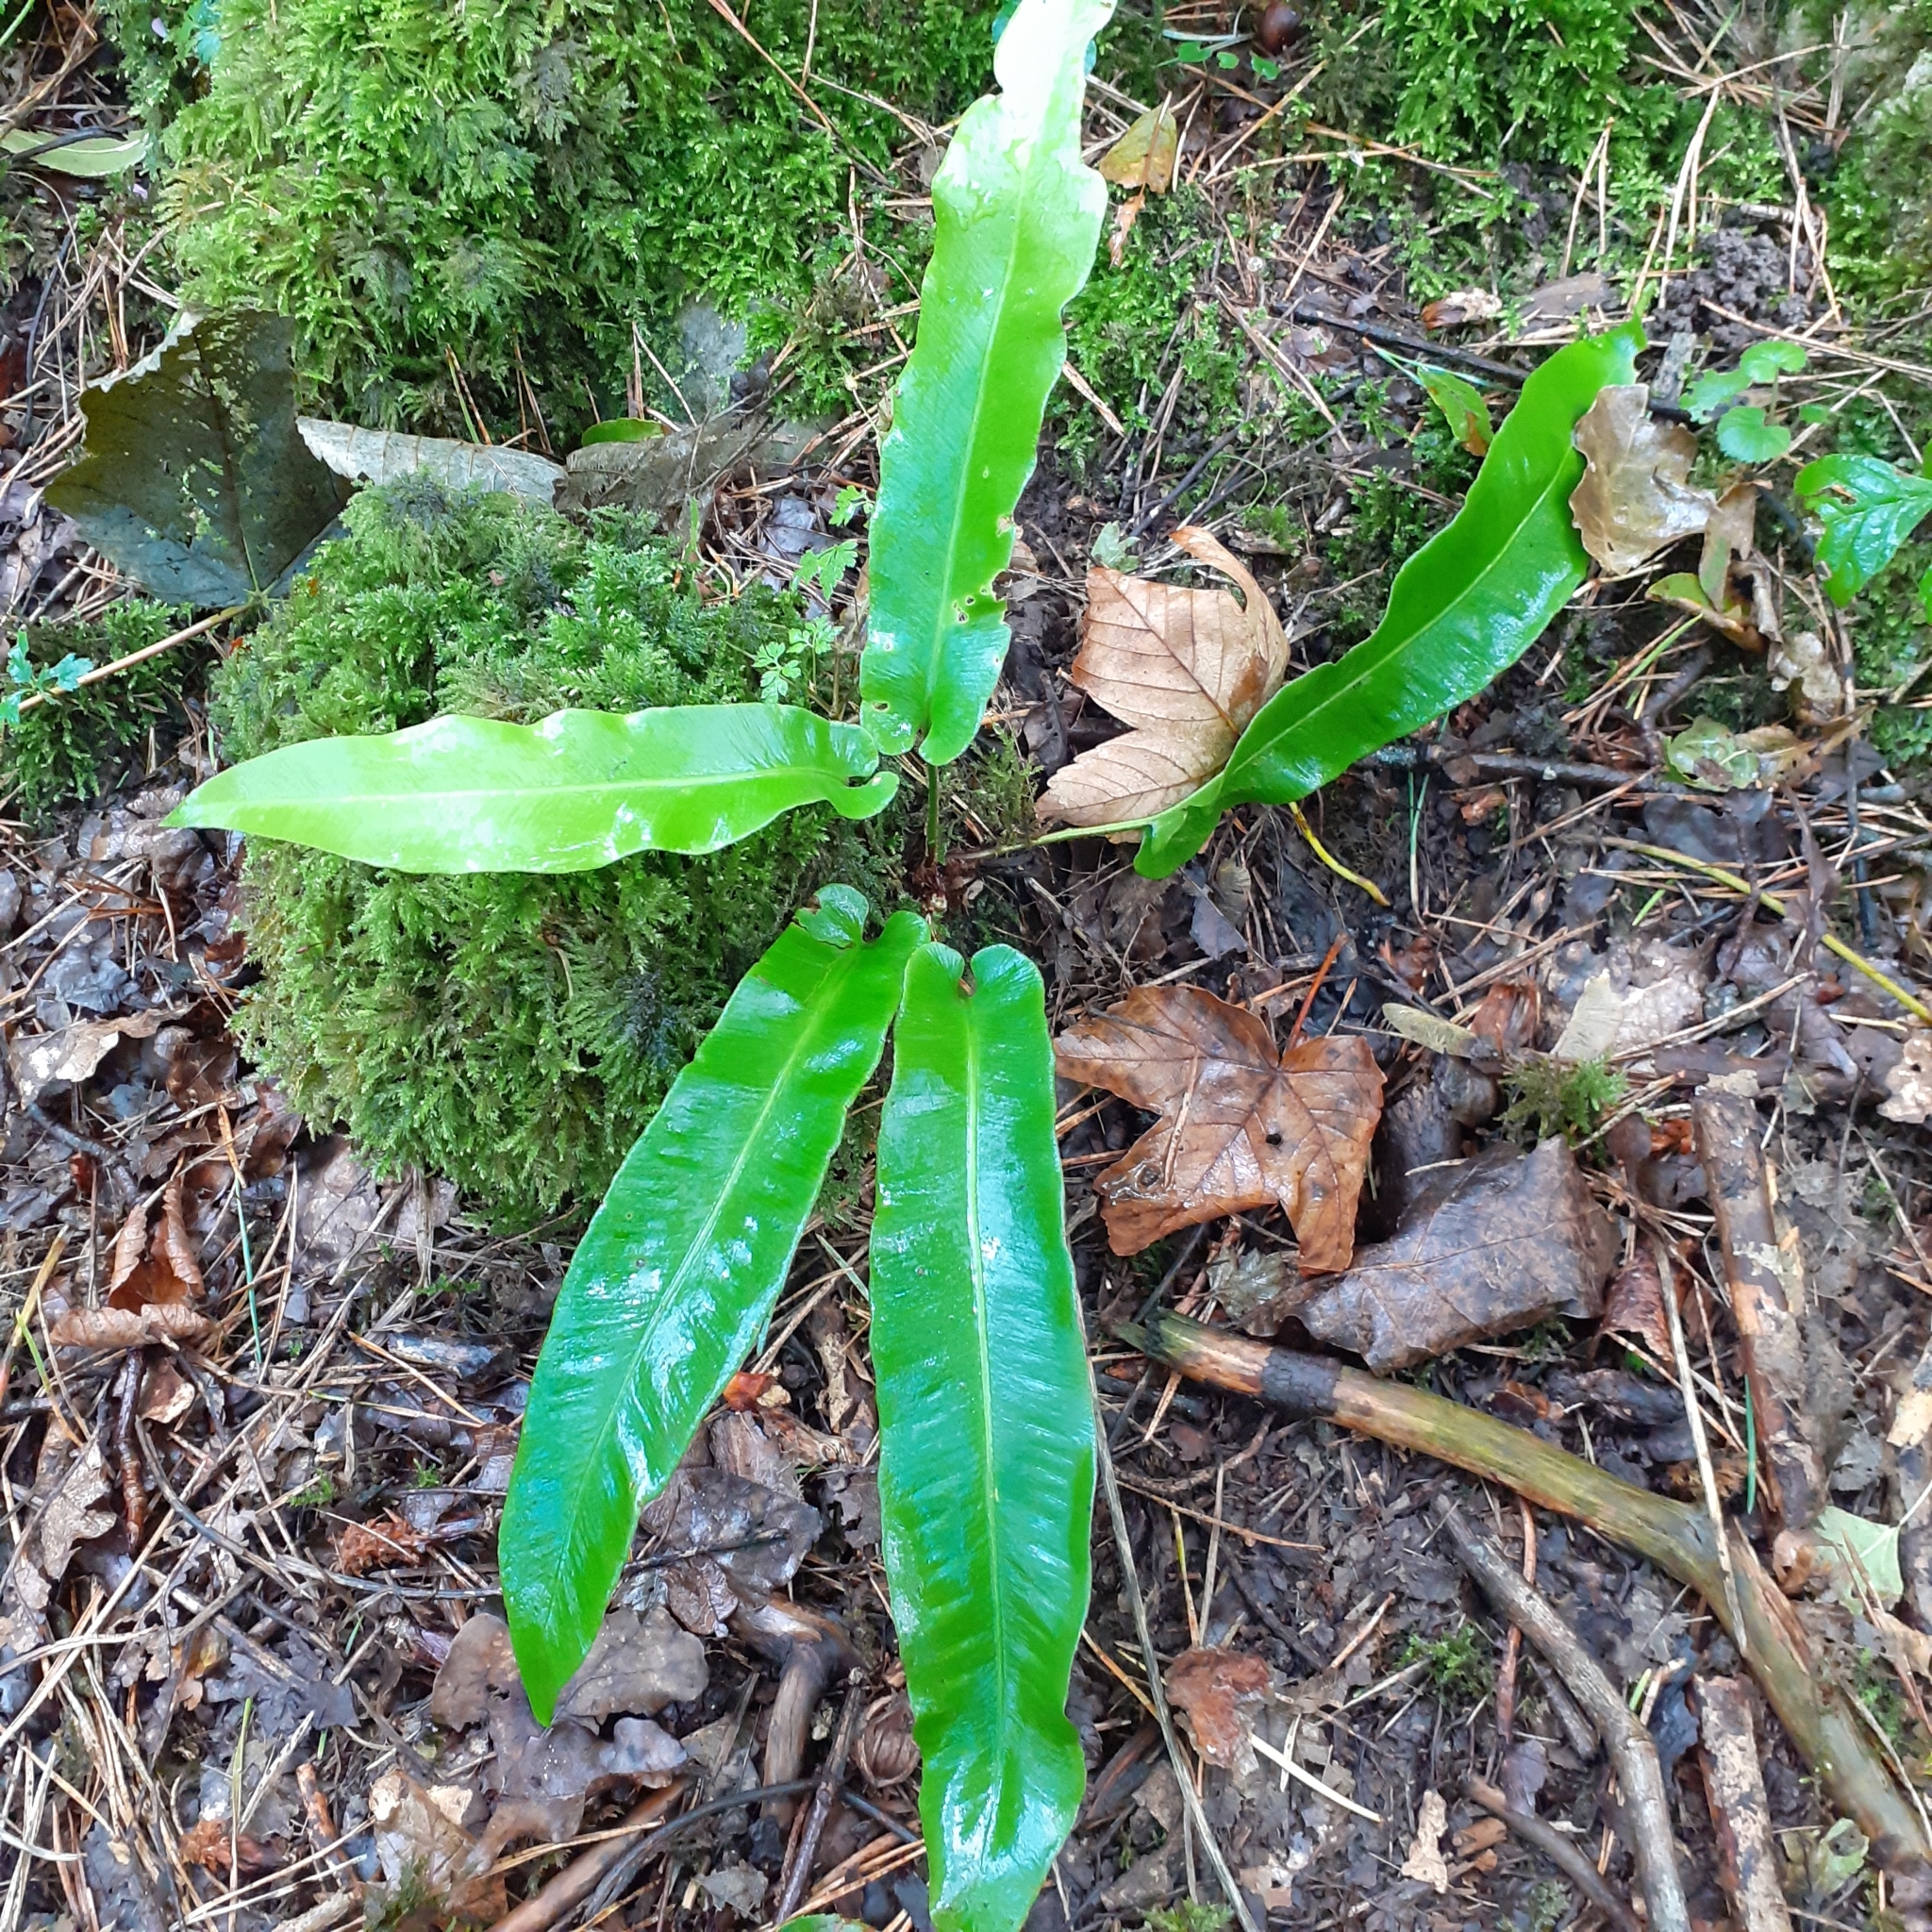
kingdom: Plantae
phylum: Tracheophyta
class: Polypodiopsida
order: Polypodiales
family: Aspleniaceae
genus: Asplenium
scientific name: Asplenium scolopendrium
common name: Hart's-tongue fern
